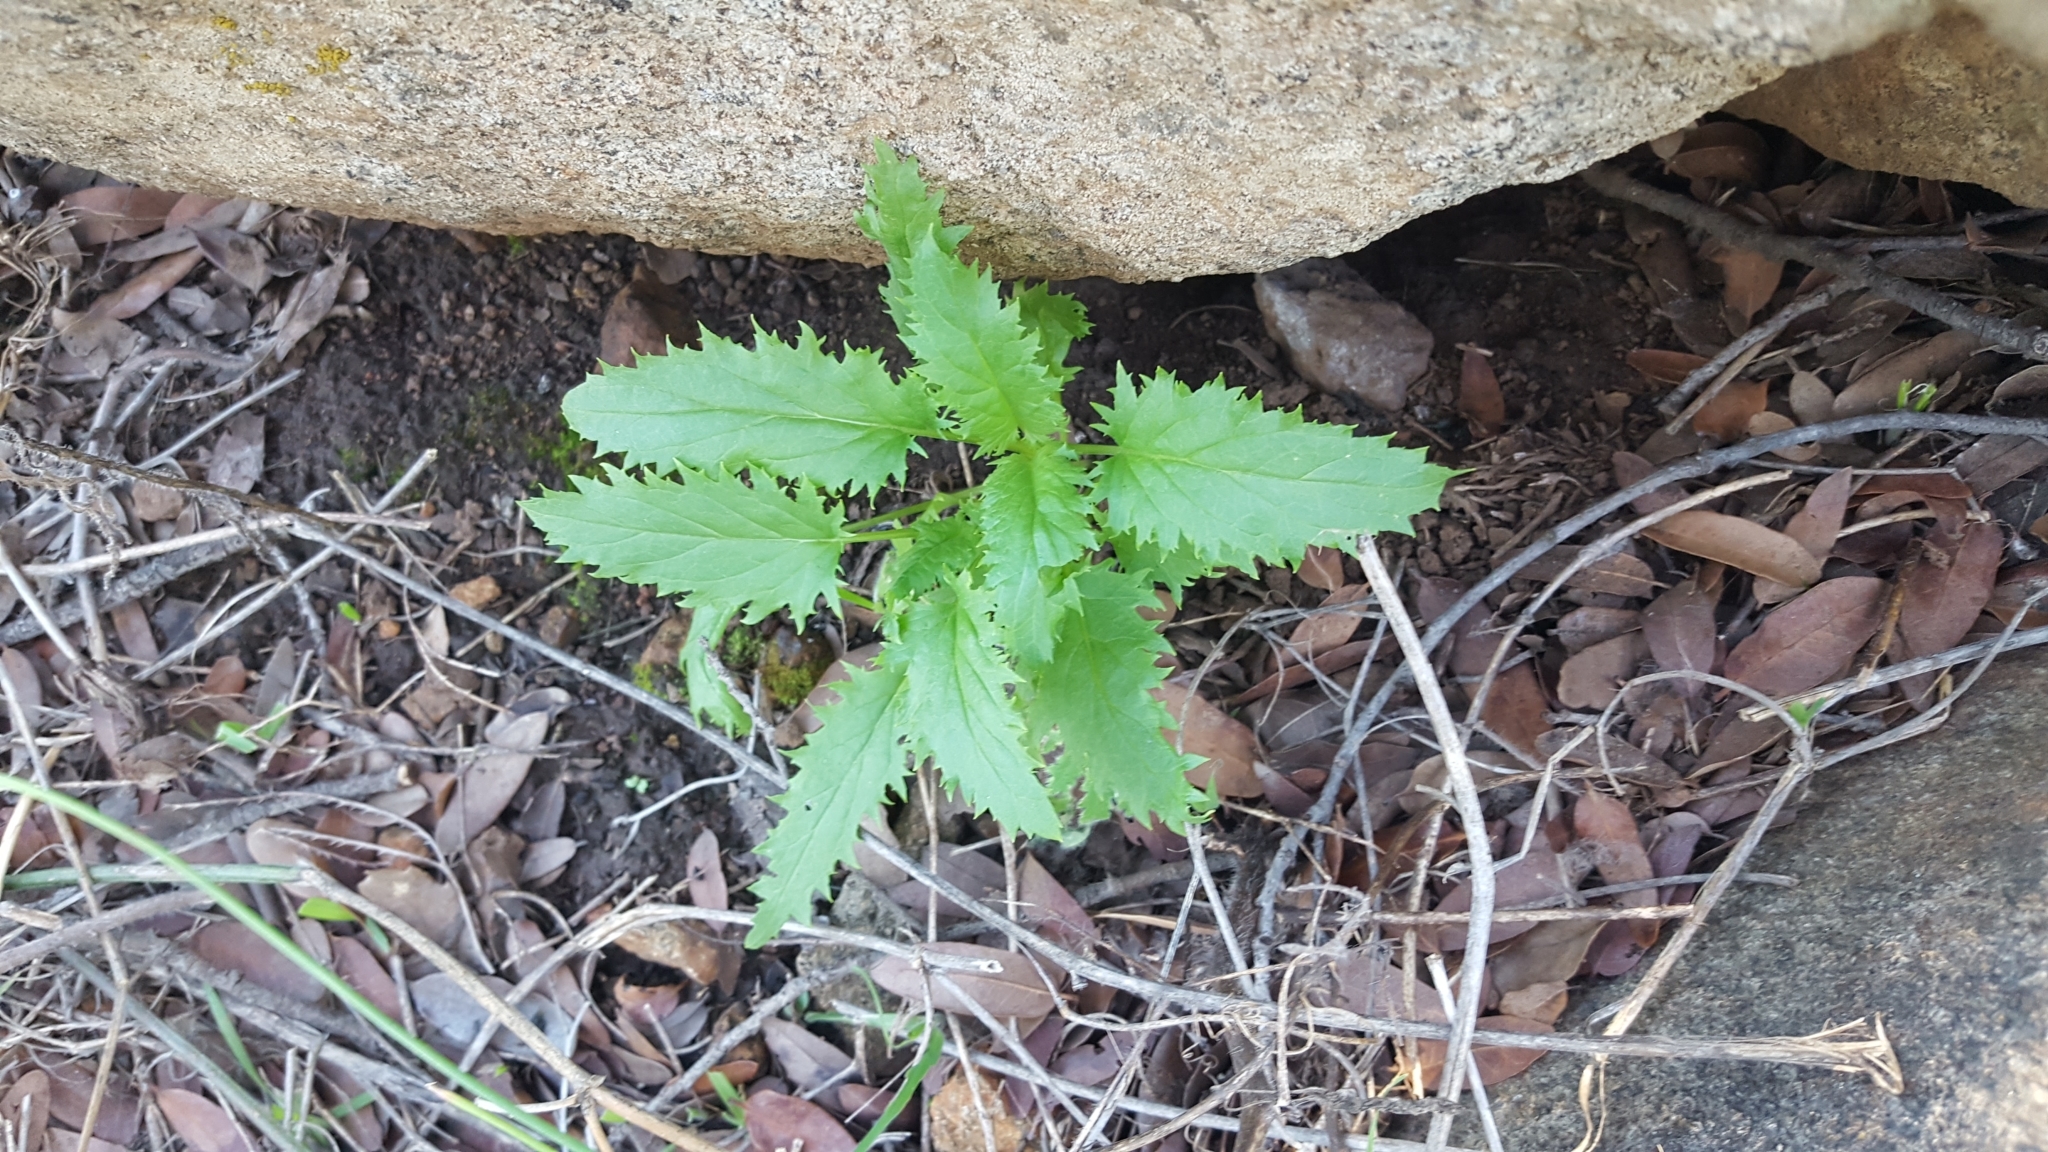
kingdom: Plantae
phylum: Tracheophyta
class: Magnoliopsida
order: Lamiales
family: Scrophulariaceae
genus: Scrophularia
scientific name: Scrophularia californica
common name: California figwort
